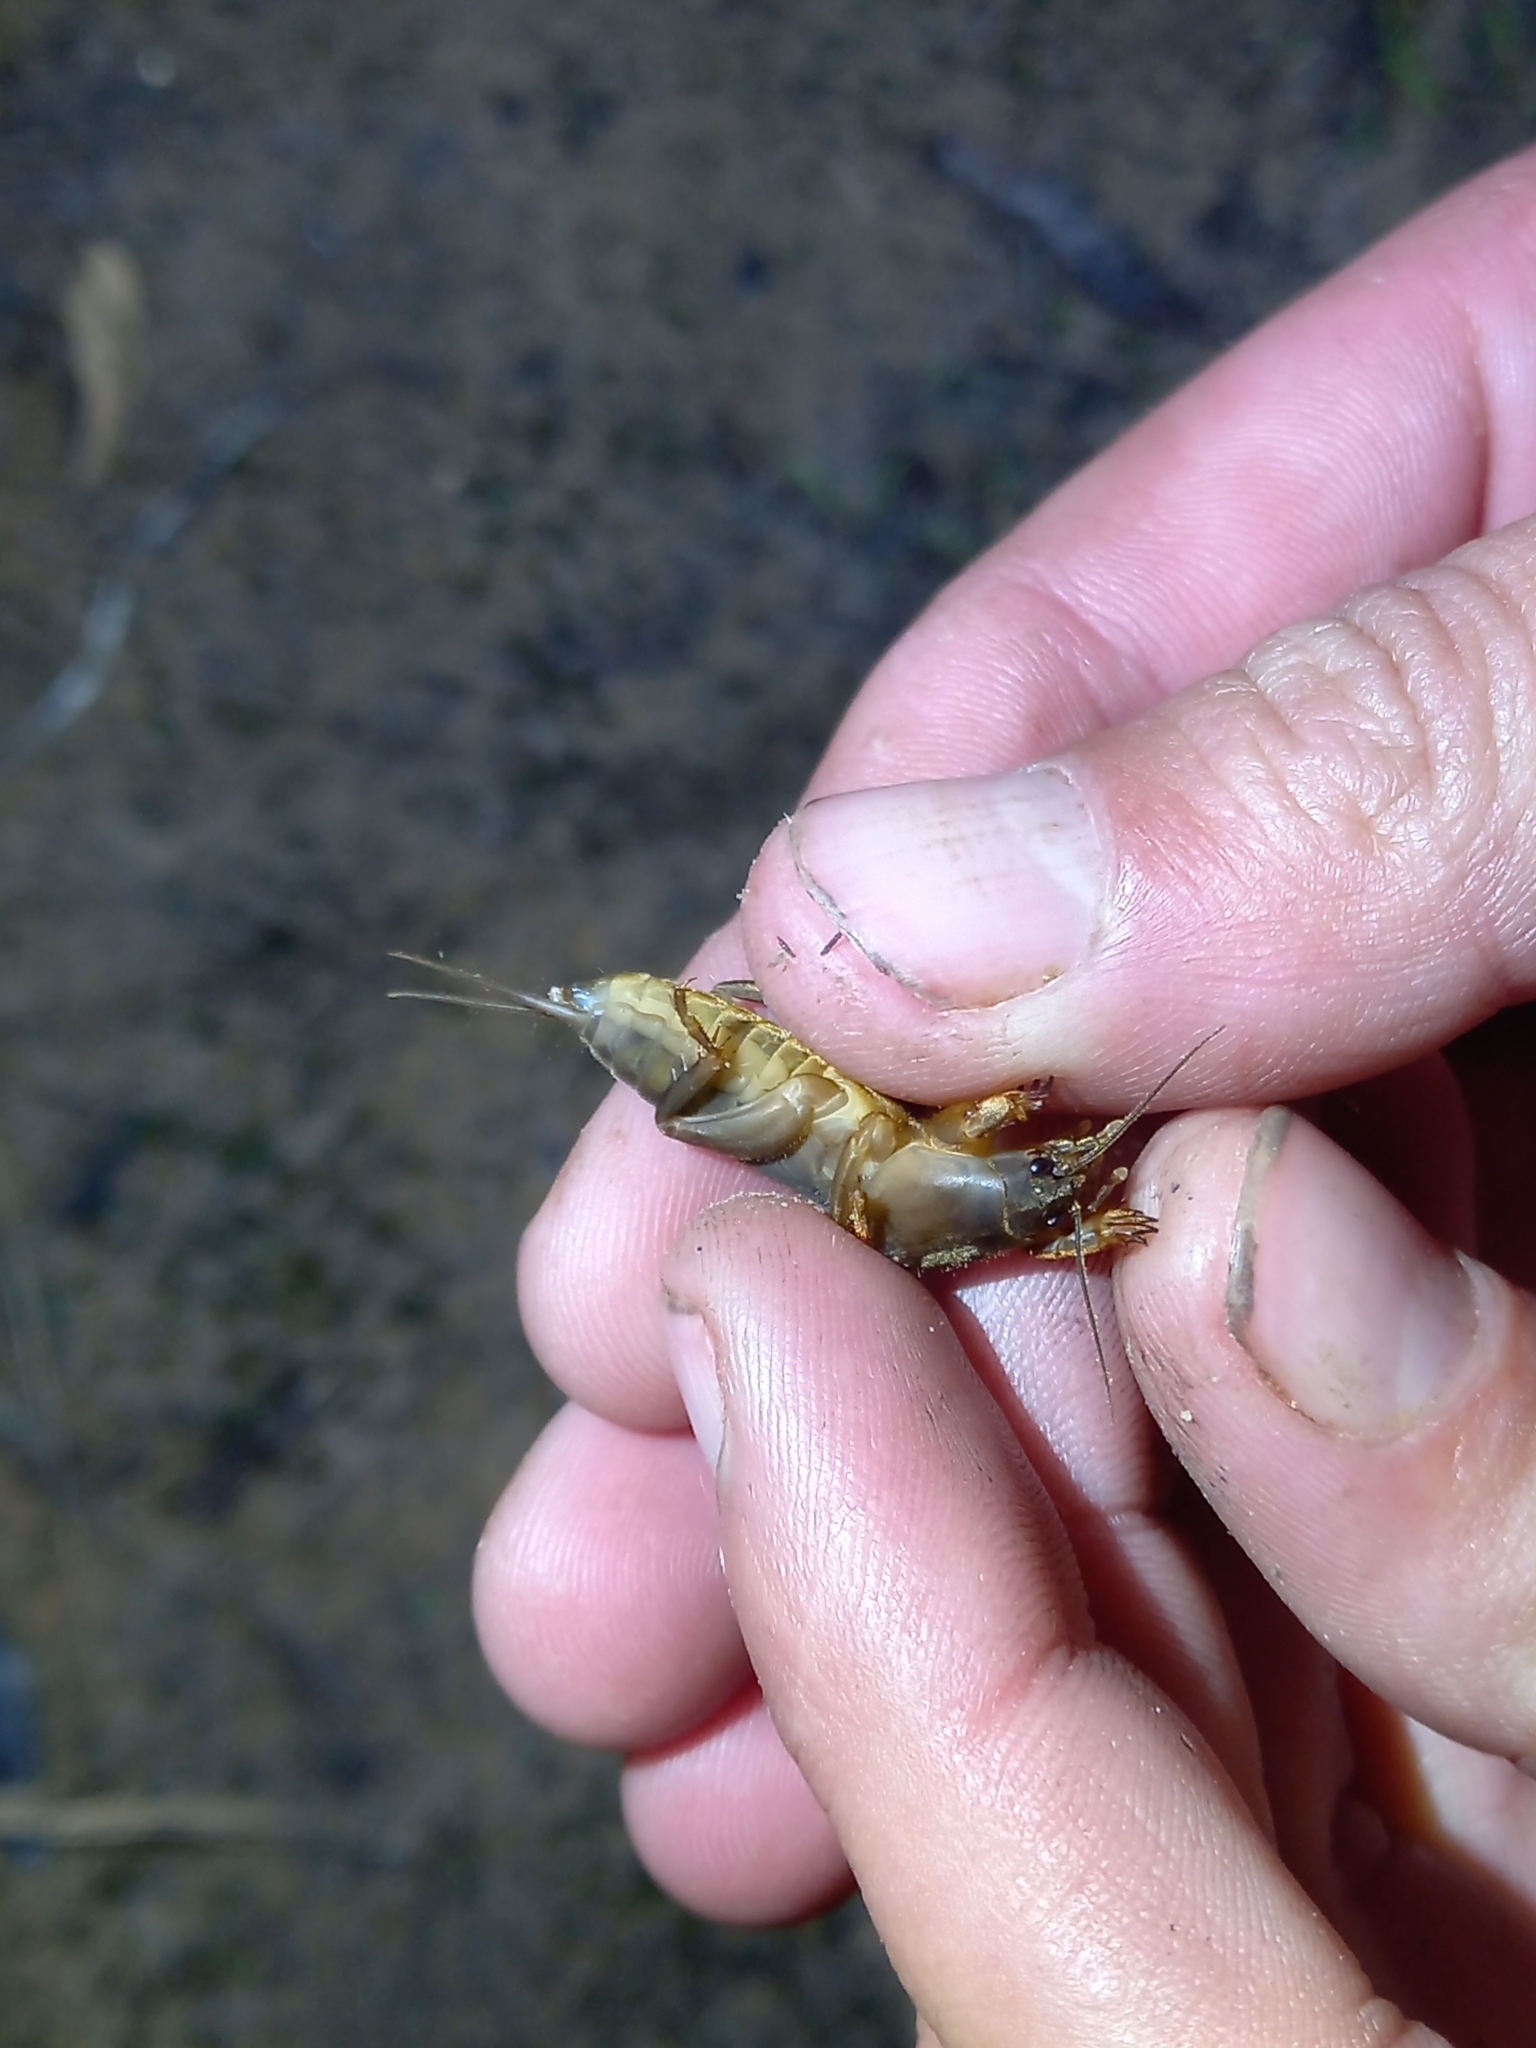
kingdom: Animalia
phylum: Arthropoda
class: Insecta
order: Orthoptera
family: Gryllotalpidae
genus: Gryllotalpa
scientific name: Gryllotalpa africana
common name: African mole cricket
